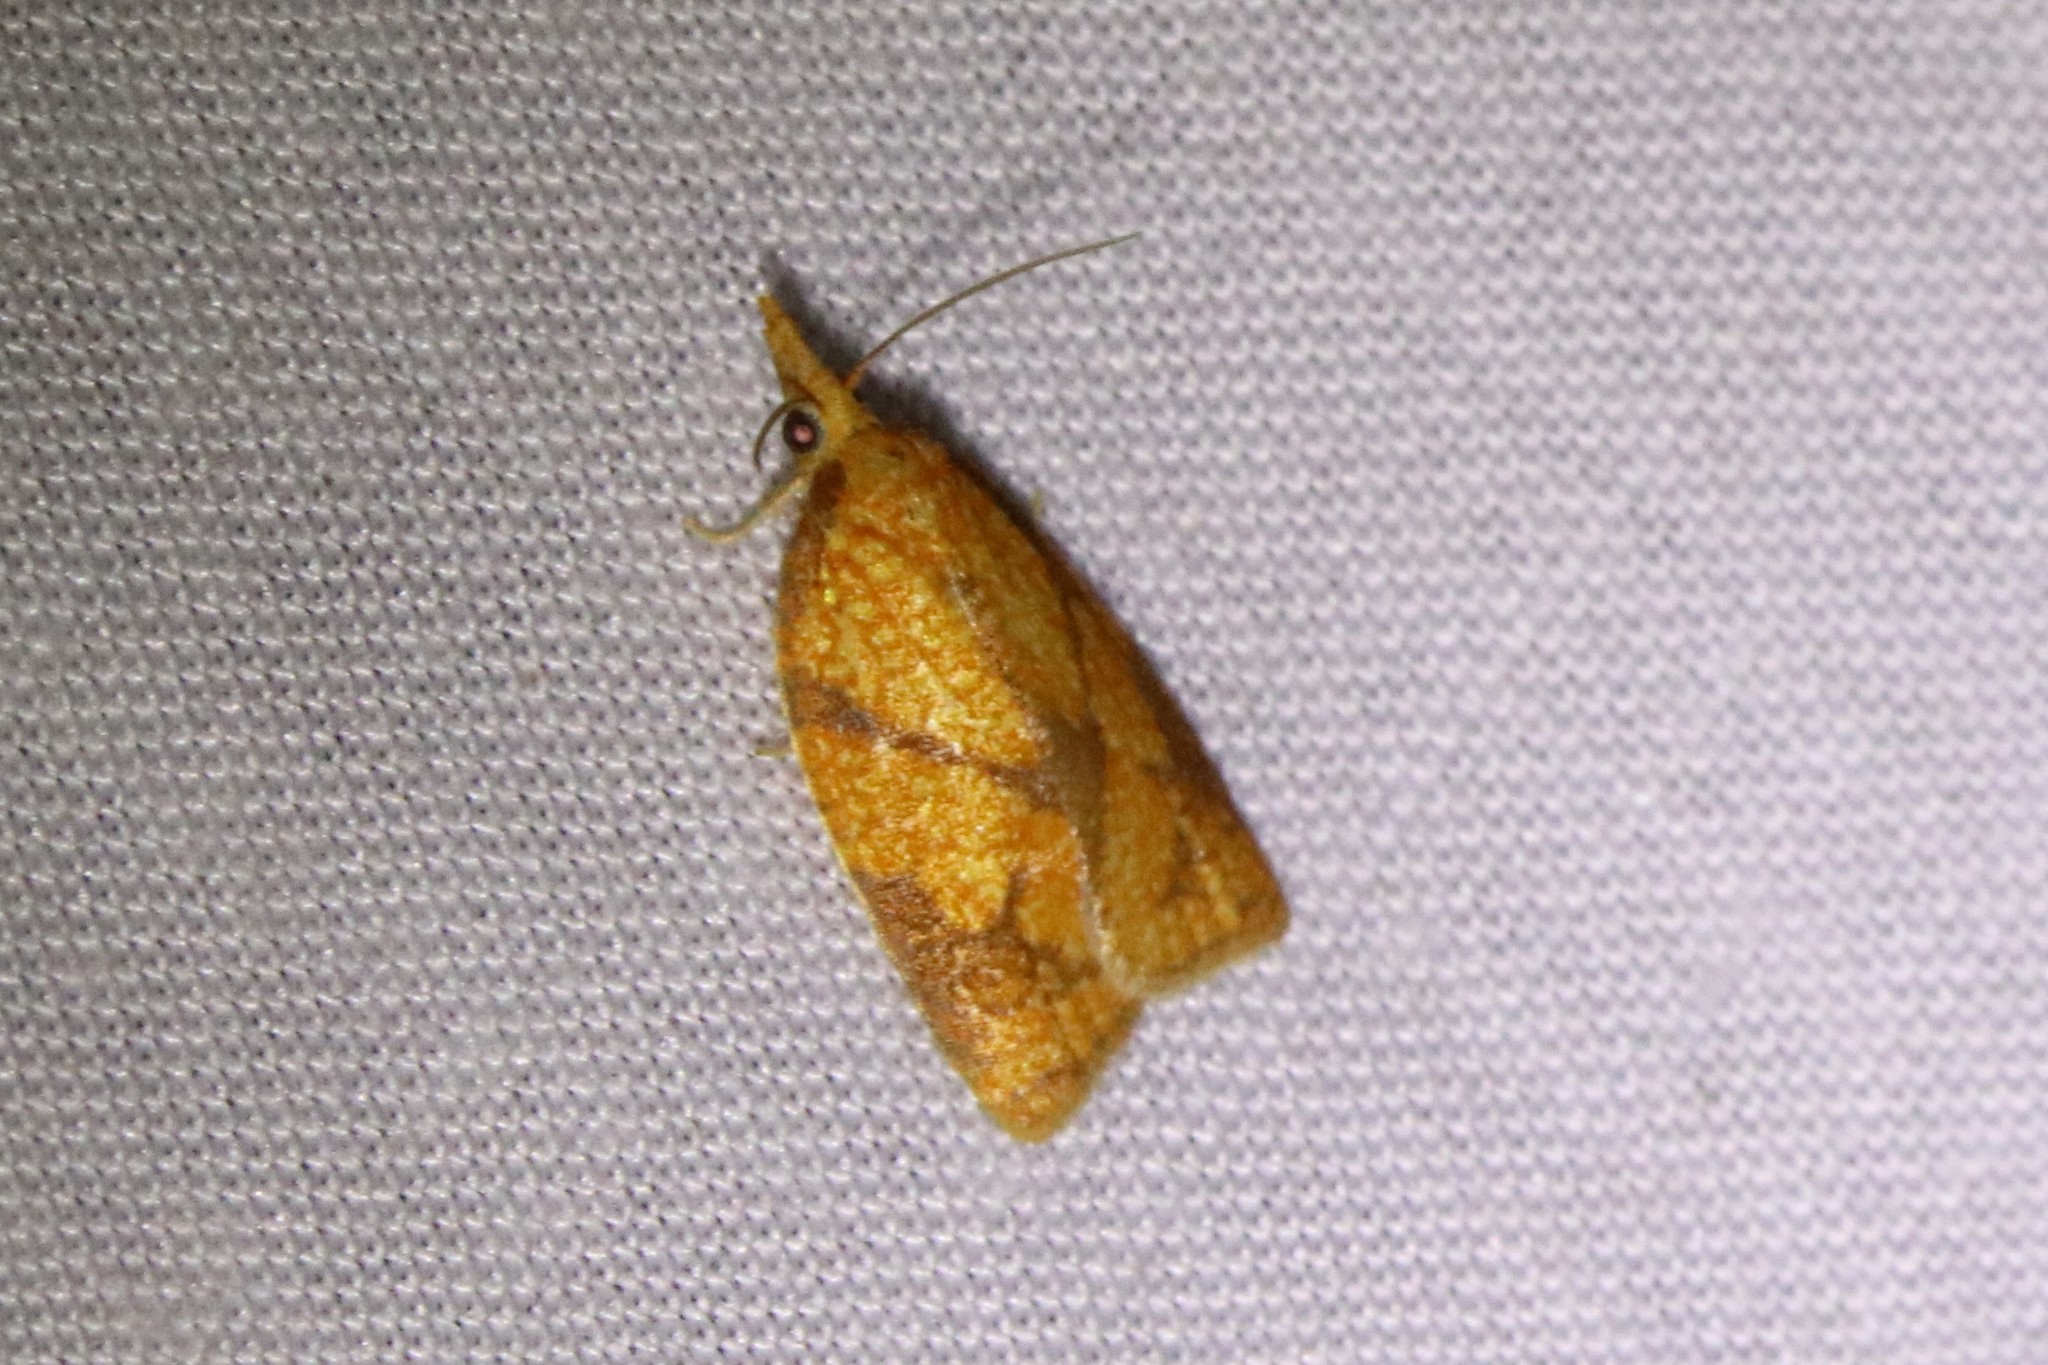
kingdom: Animalia
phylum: Arthropoda
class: Insecta
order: Lepidoptera
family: Tortricidae
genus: Cenopis
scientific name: Cenopis reticulatana
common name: Reticulated fruitworm moth
